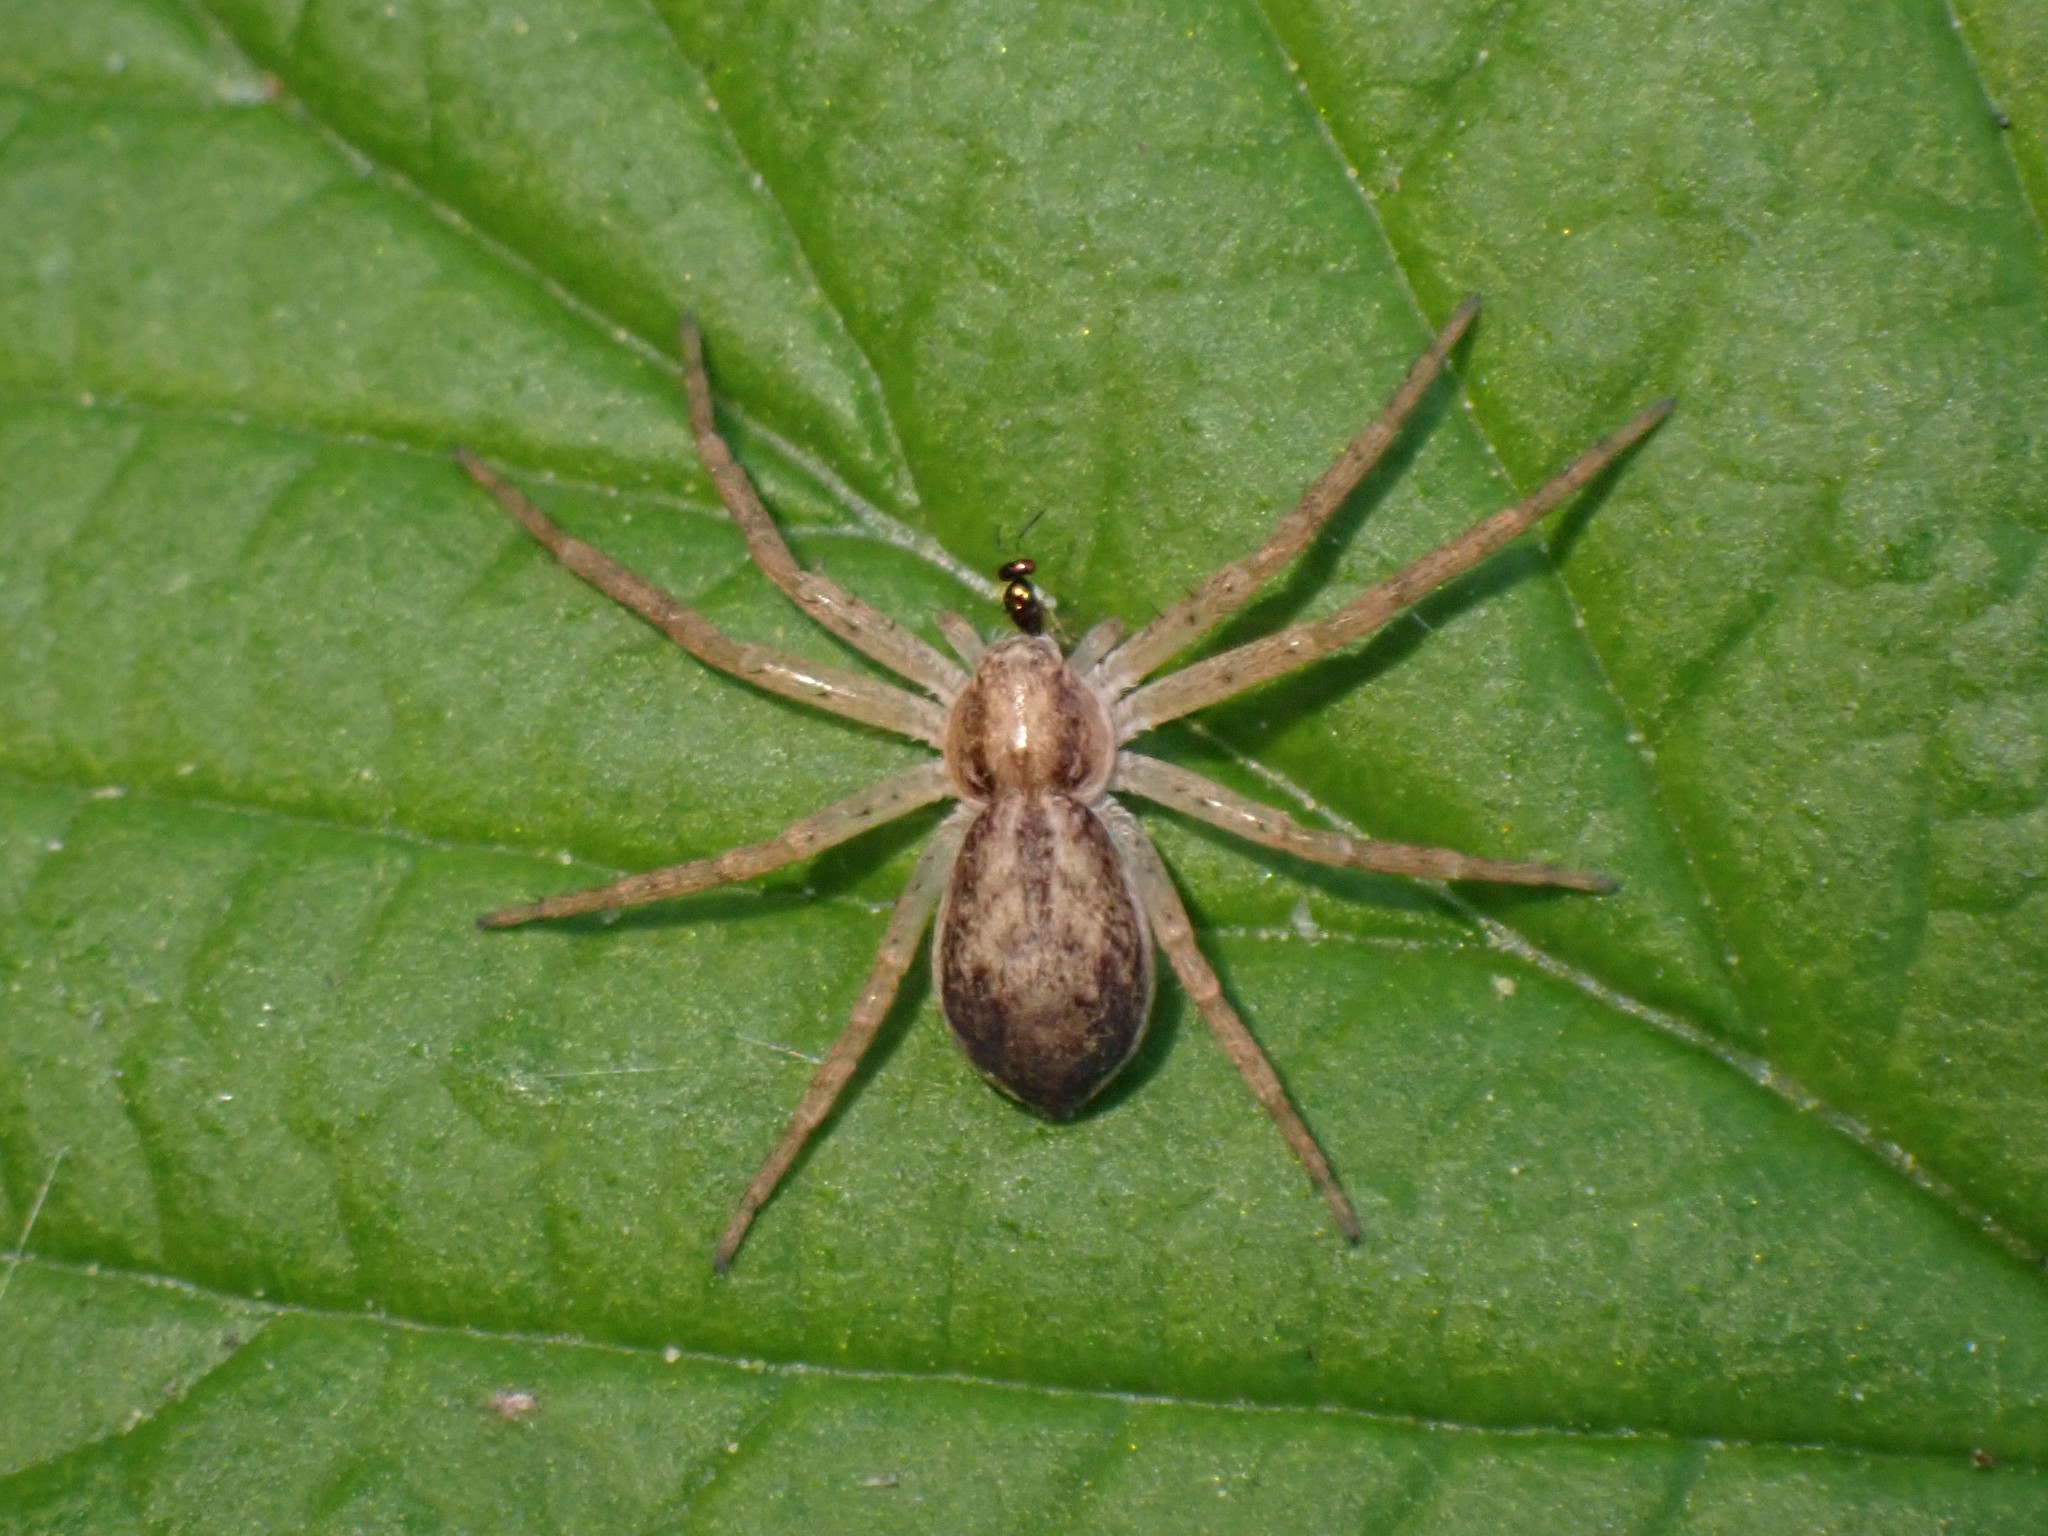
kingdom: Animalia
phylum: Arthropoda
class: Arachnida
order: Araneae
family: Philodromidae
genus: Philodromus
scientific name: Philodromus dispar
